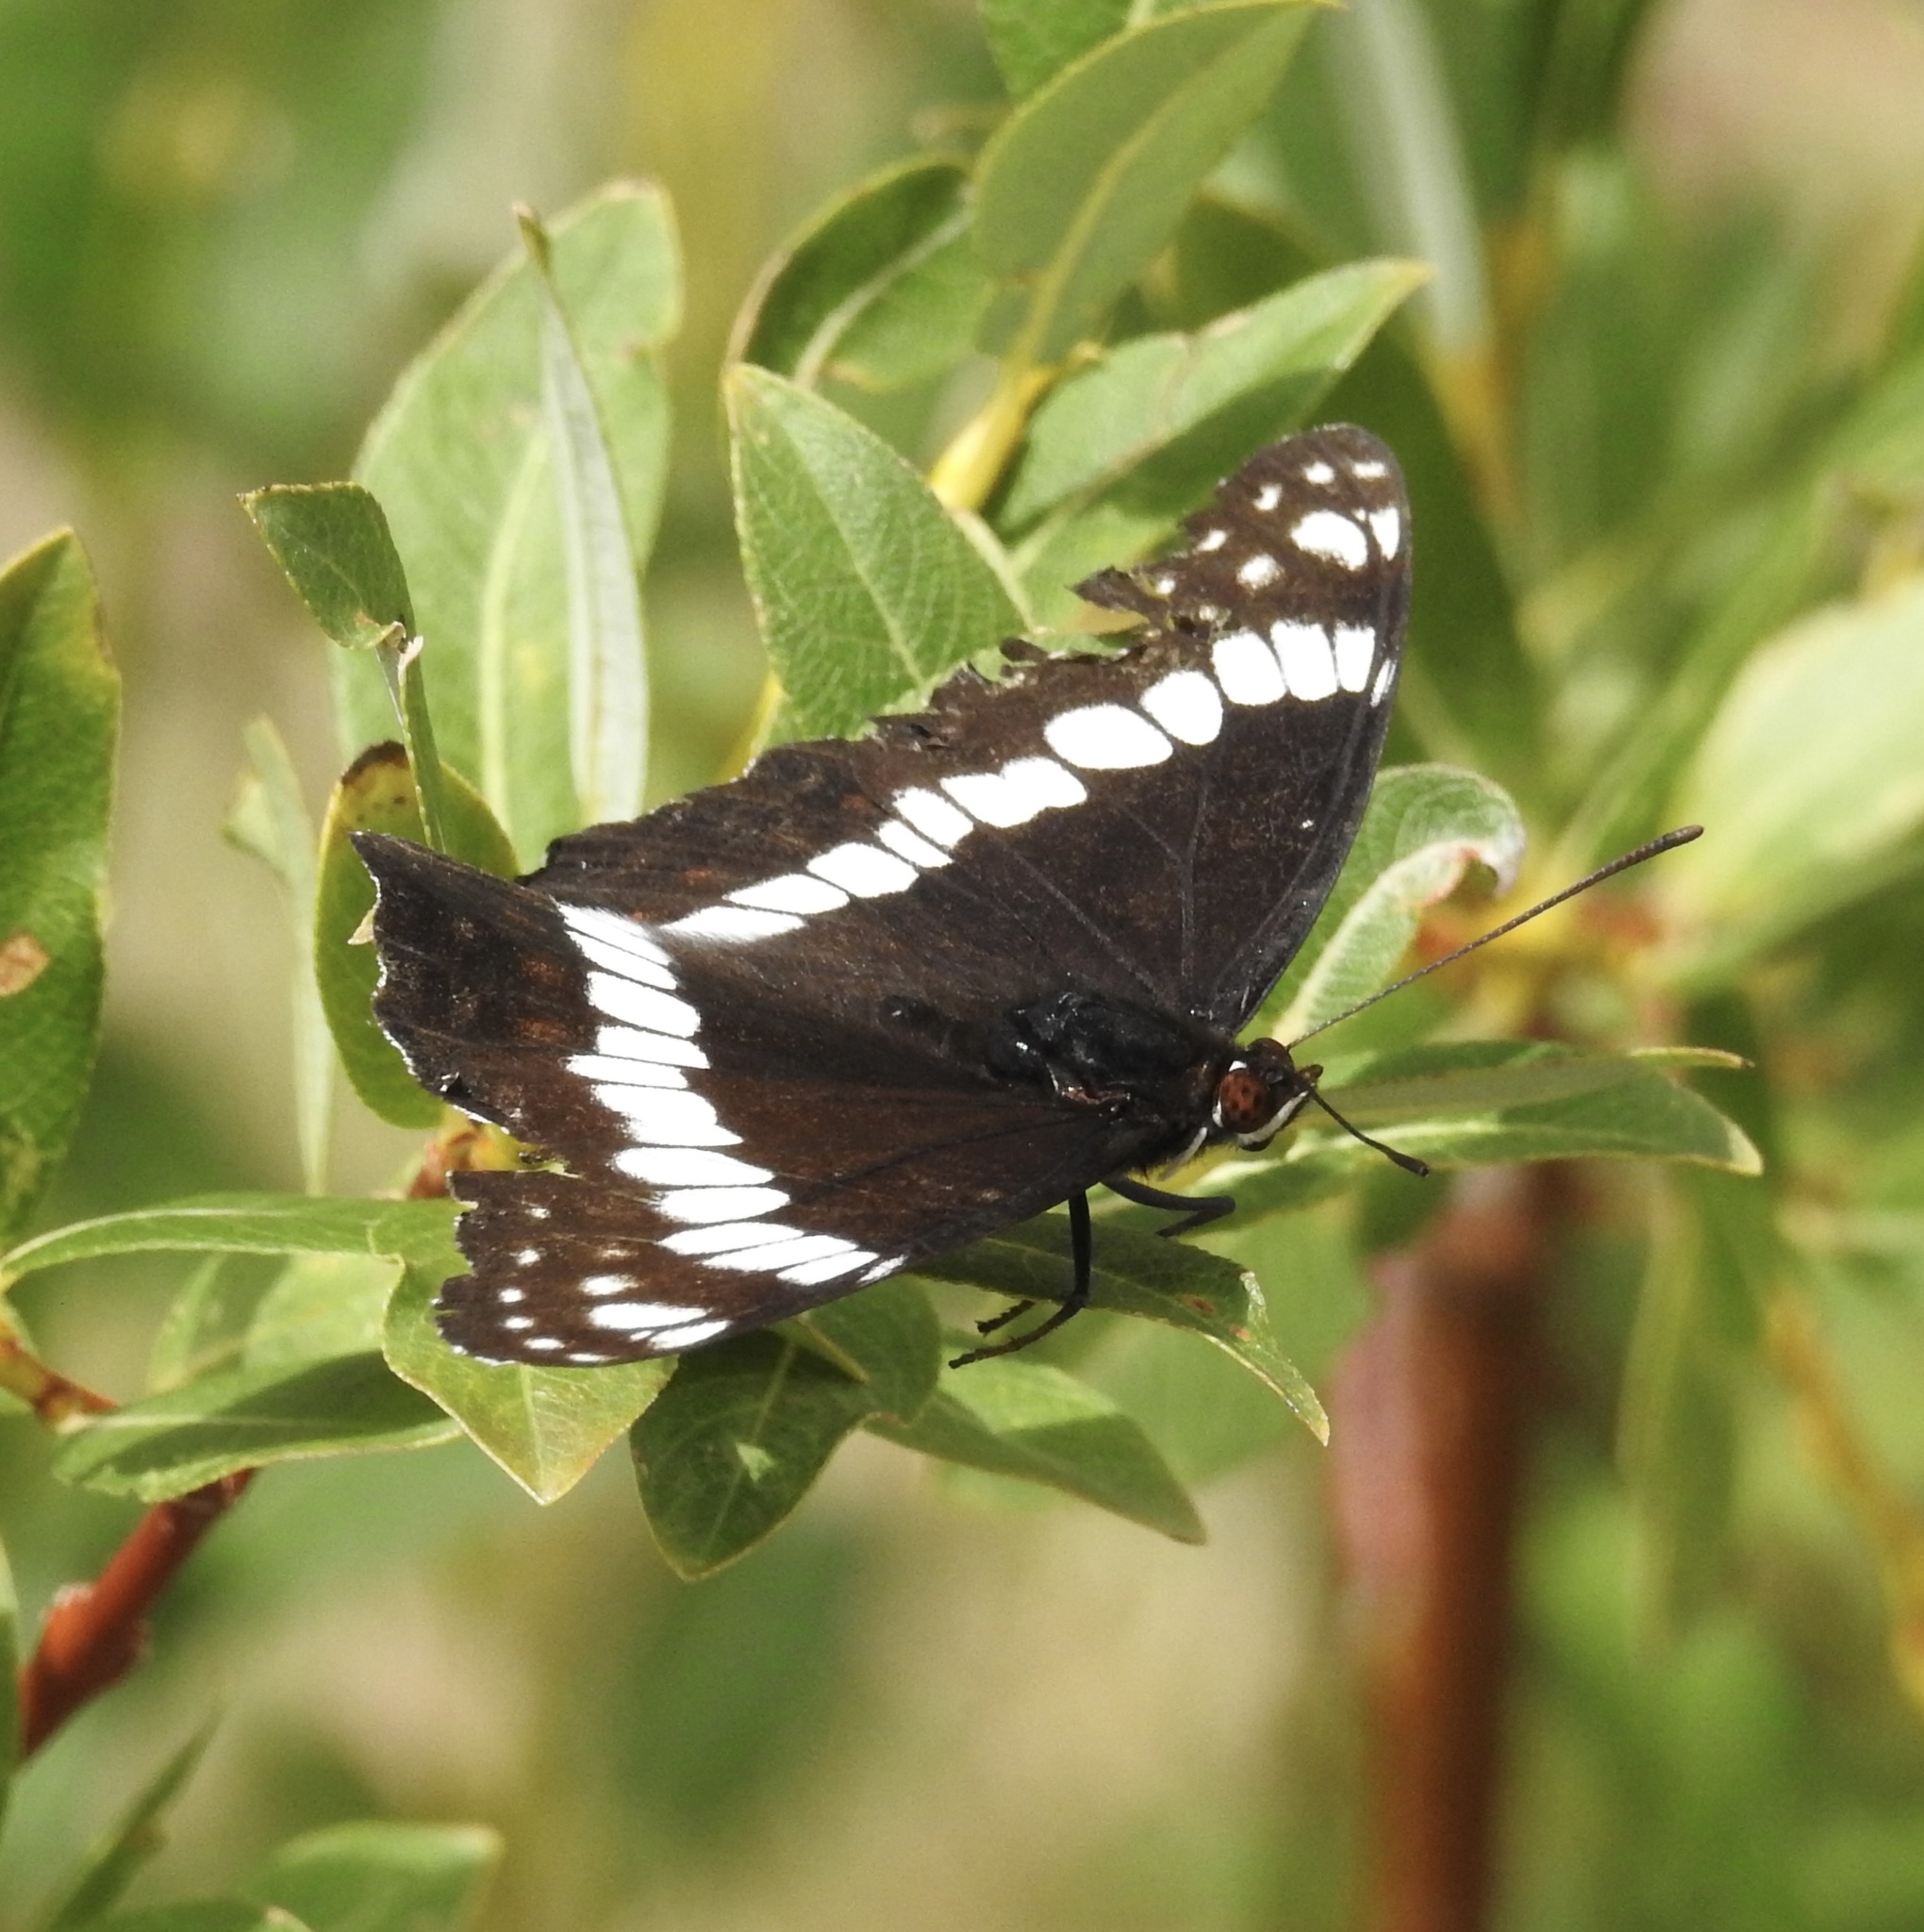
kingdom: Animalia
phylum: Arthropoda
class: Insecta
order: Lepidoptera
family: Nymphalidae
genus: Limenitis
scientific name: Limenitis weidemeyerii
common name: Weidemeyer's admiral
